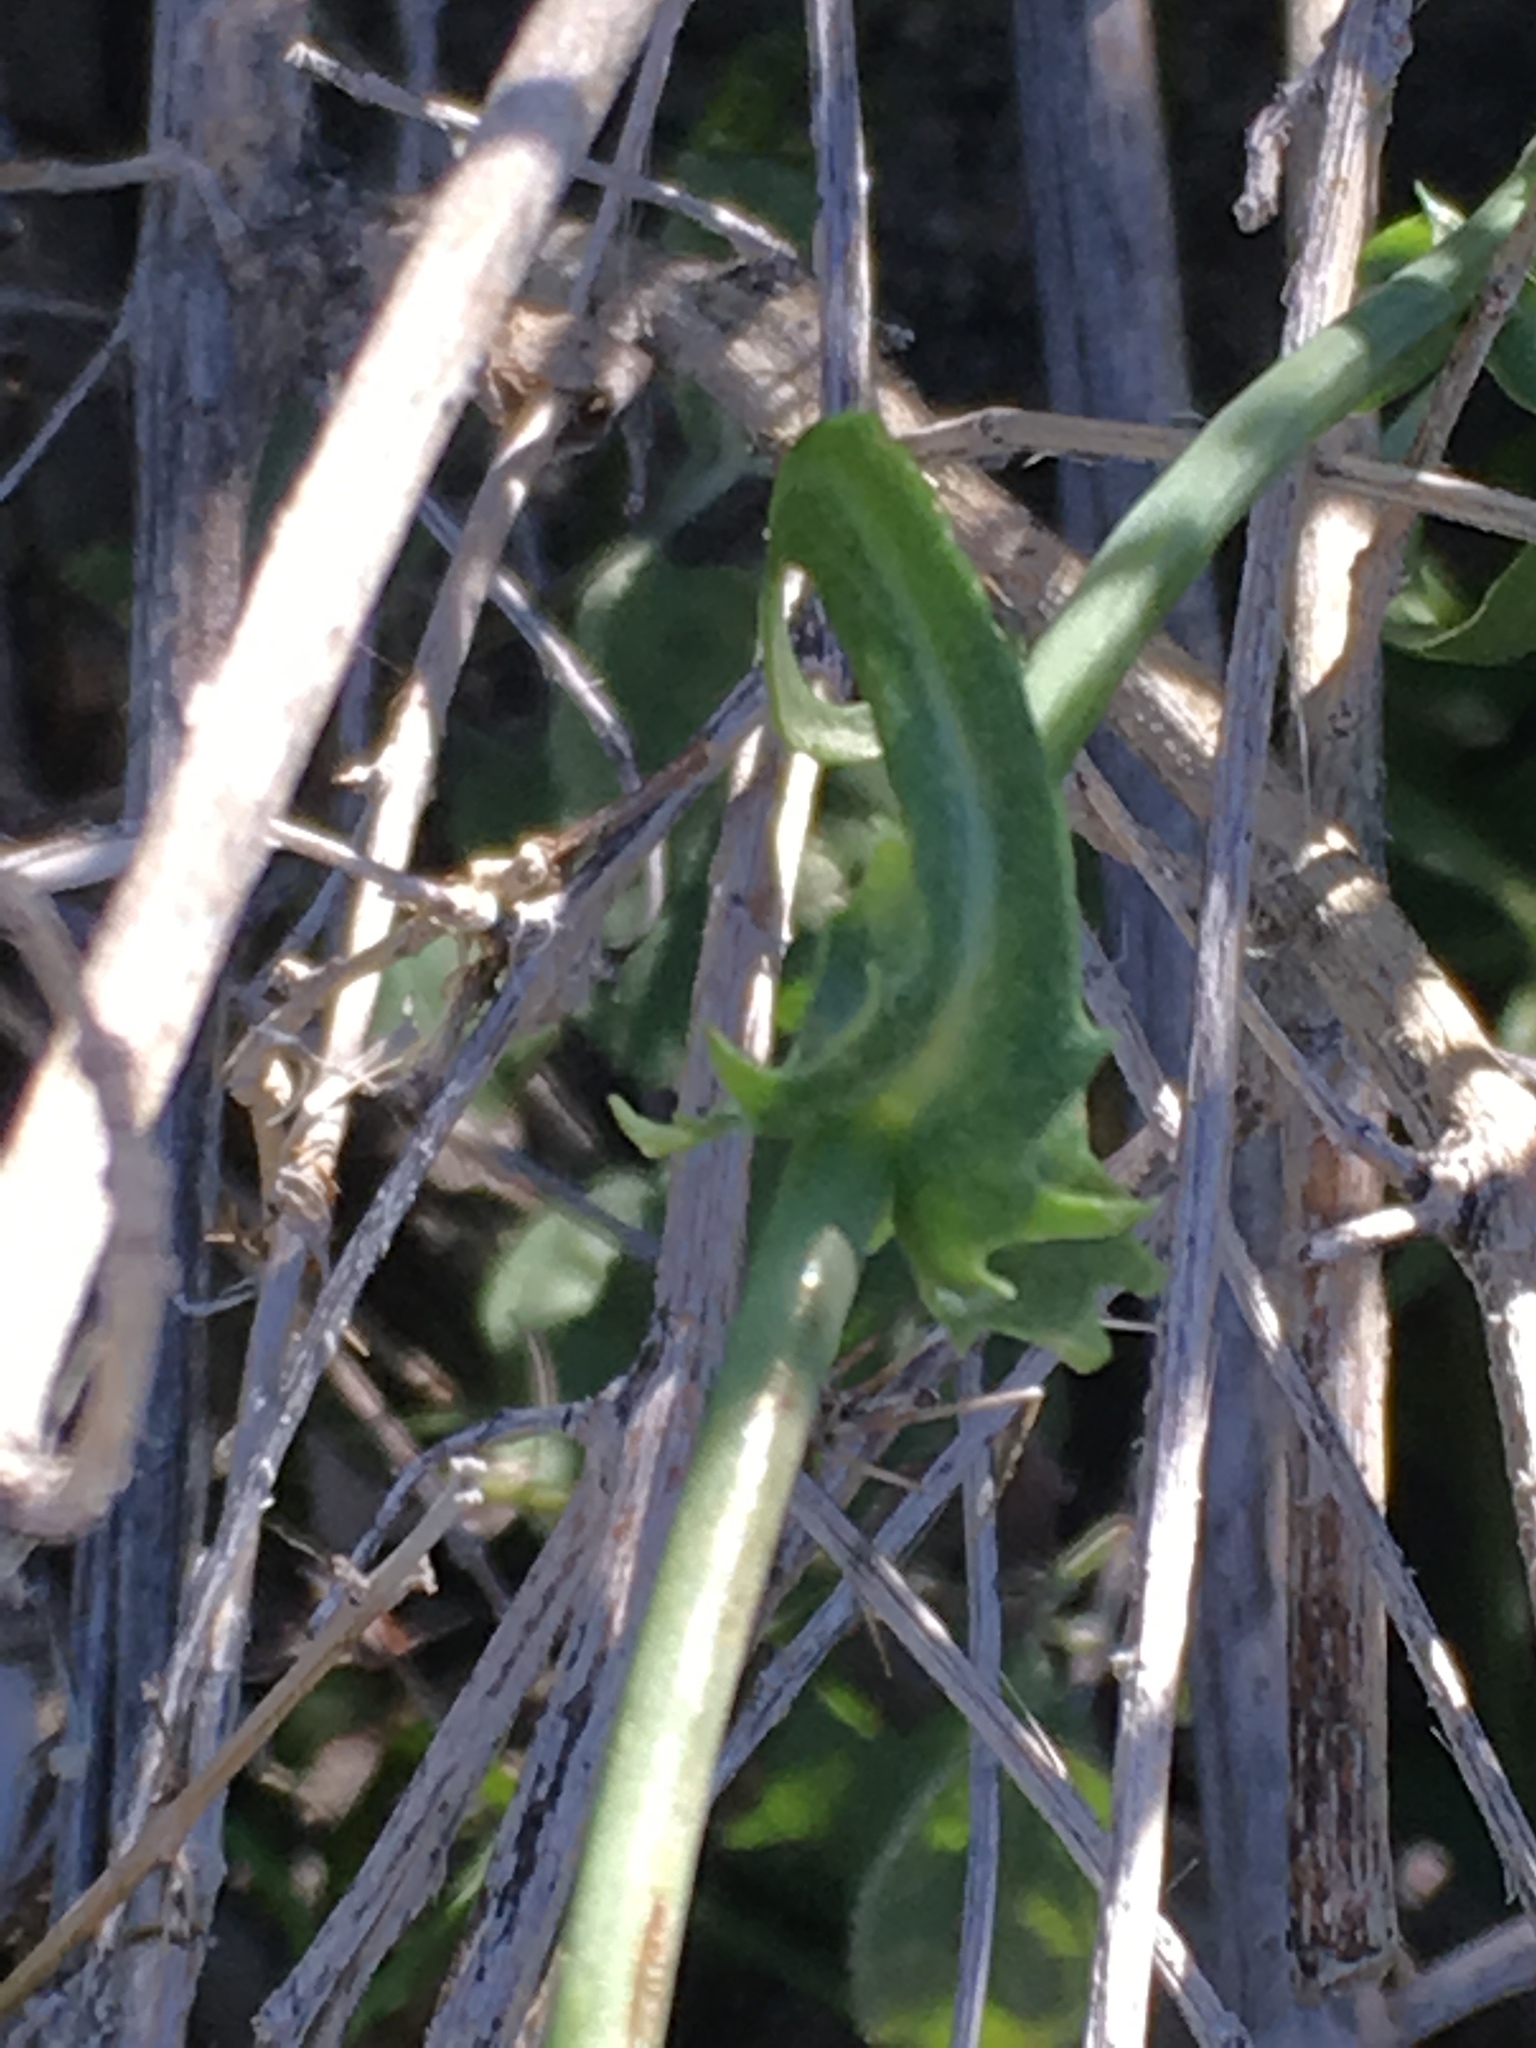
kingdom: Plantae
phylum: Tracheophyta
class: Magnoliopsida
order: Asterales
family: Asteraceae
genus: Rafinesquia
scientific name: Rafinesquia neomexicana
